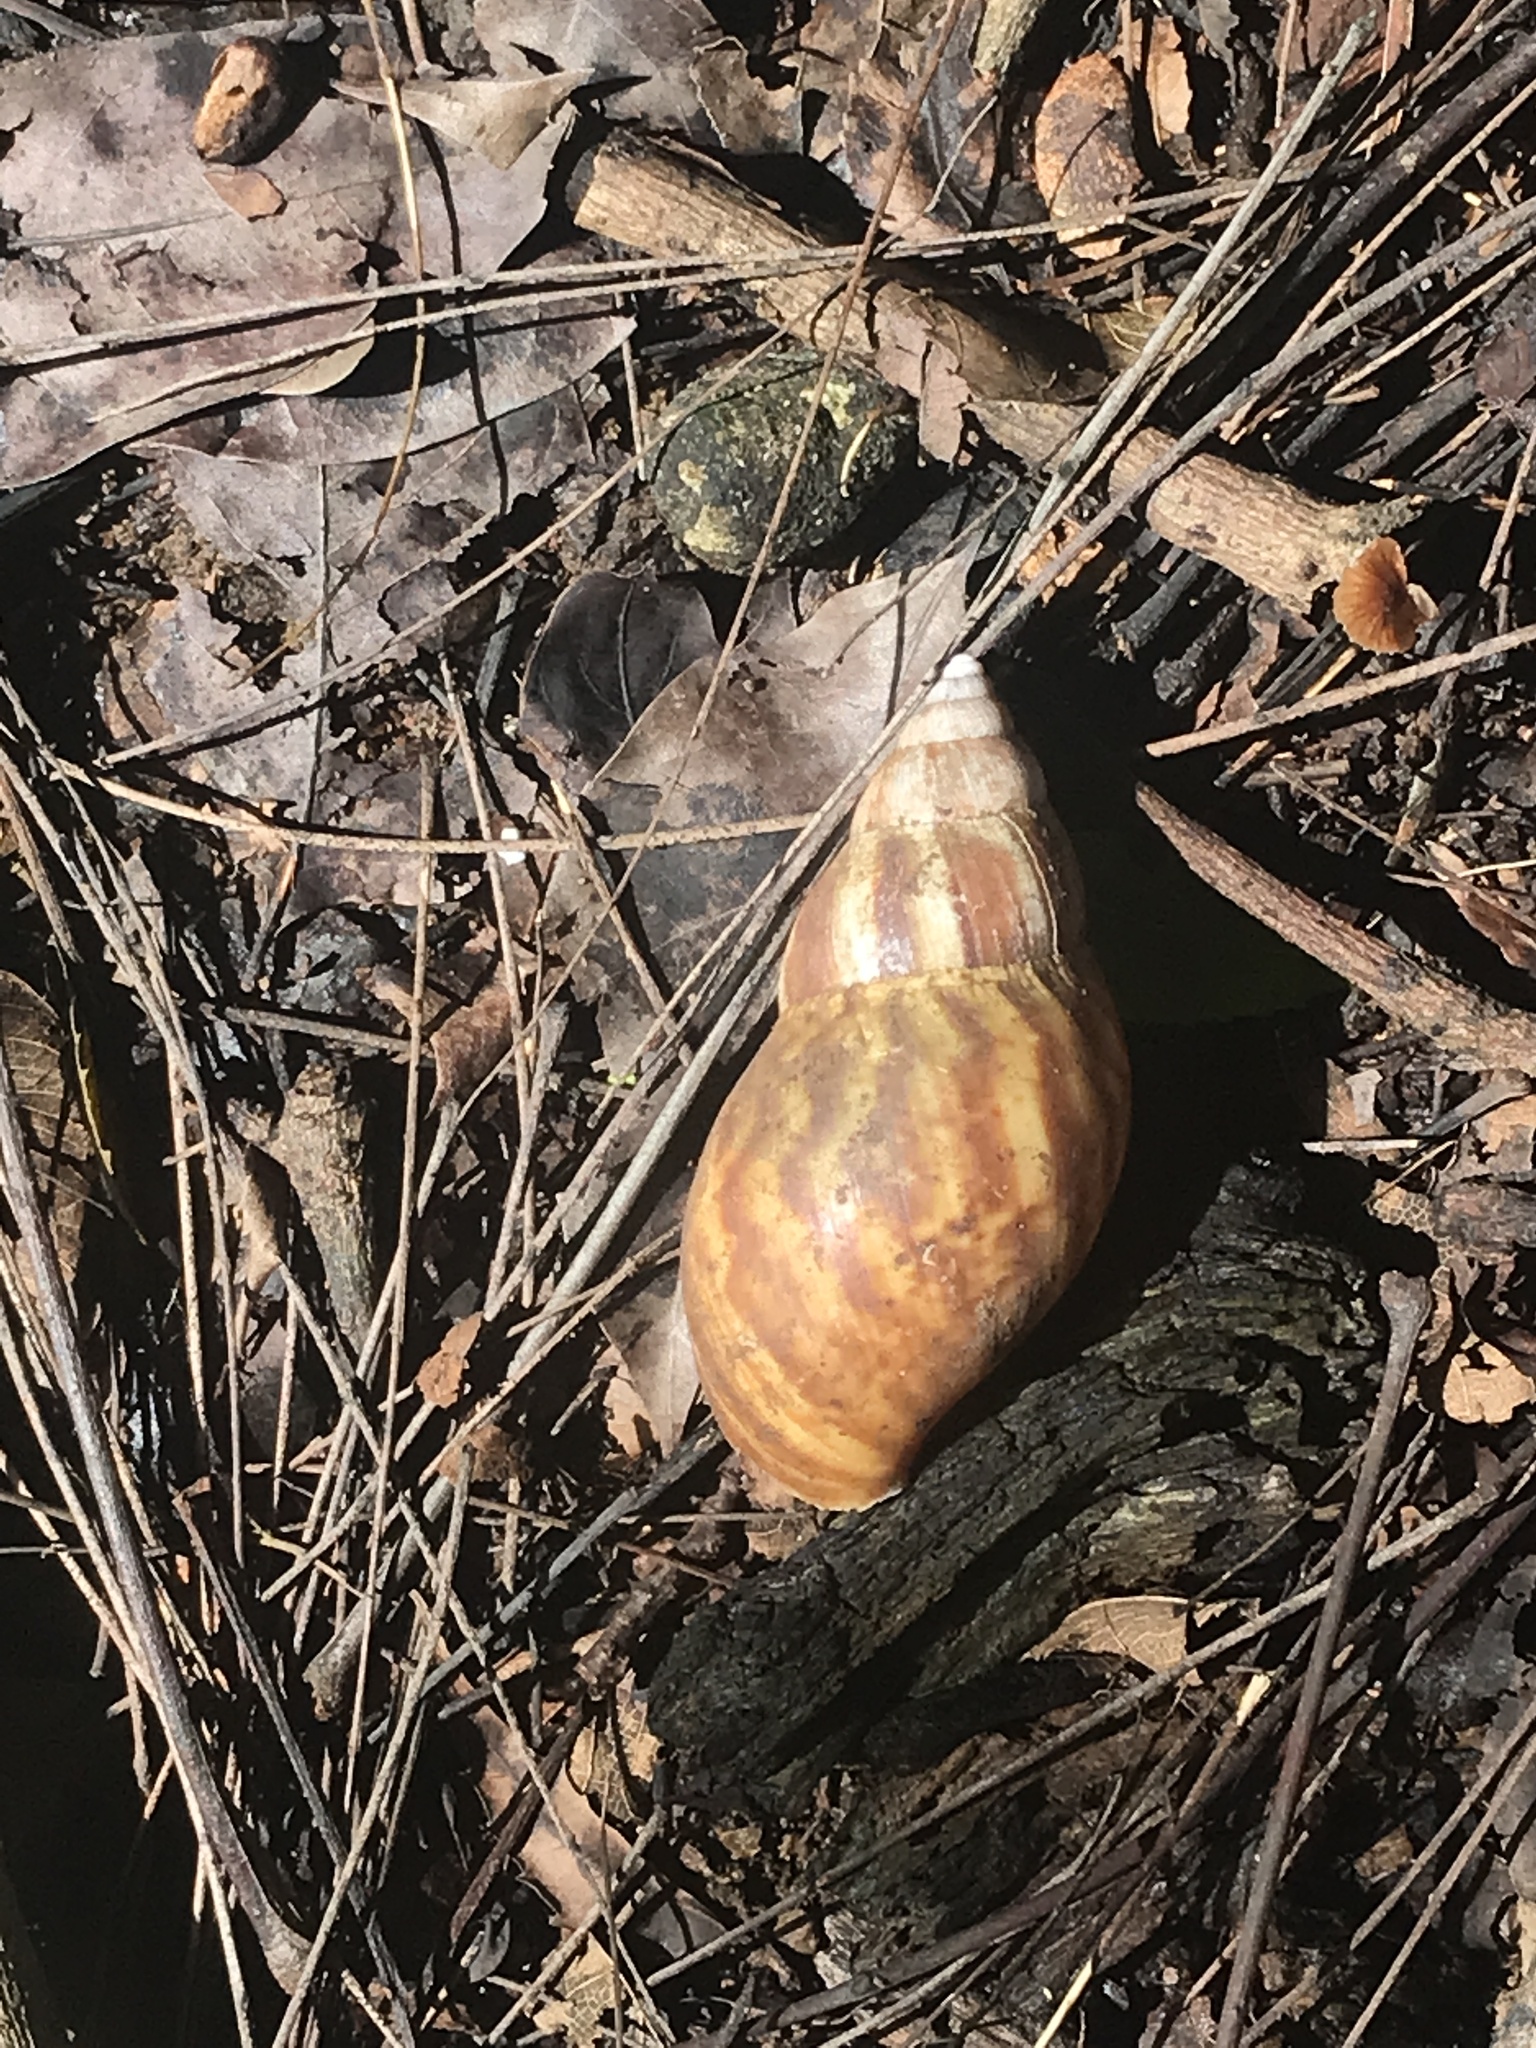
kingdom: Animalia
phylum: Mollusca
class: Gastropoda
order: Stylommatophora
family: Achatinidae
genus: Lissachatina
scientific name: Lissachatina fulica
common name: Giant african snail
